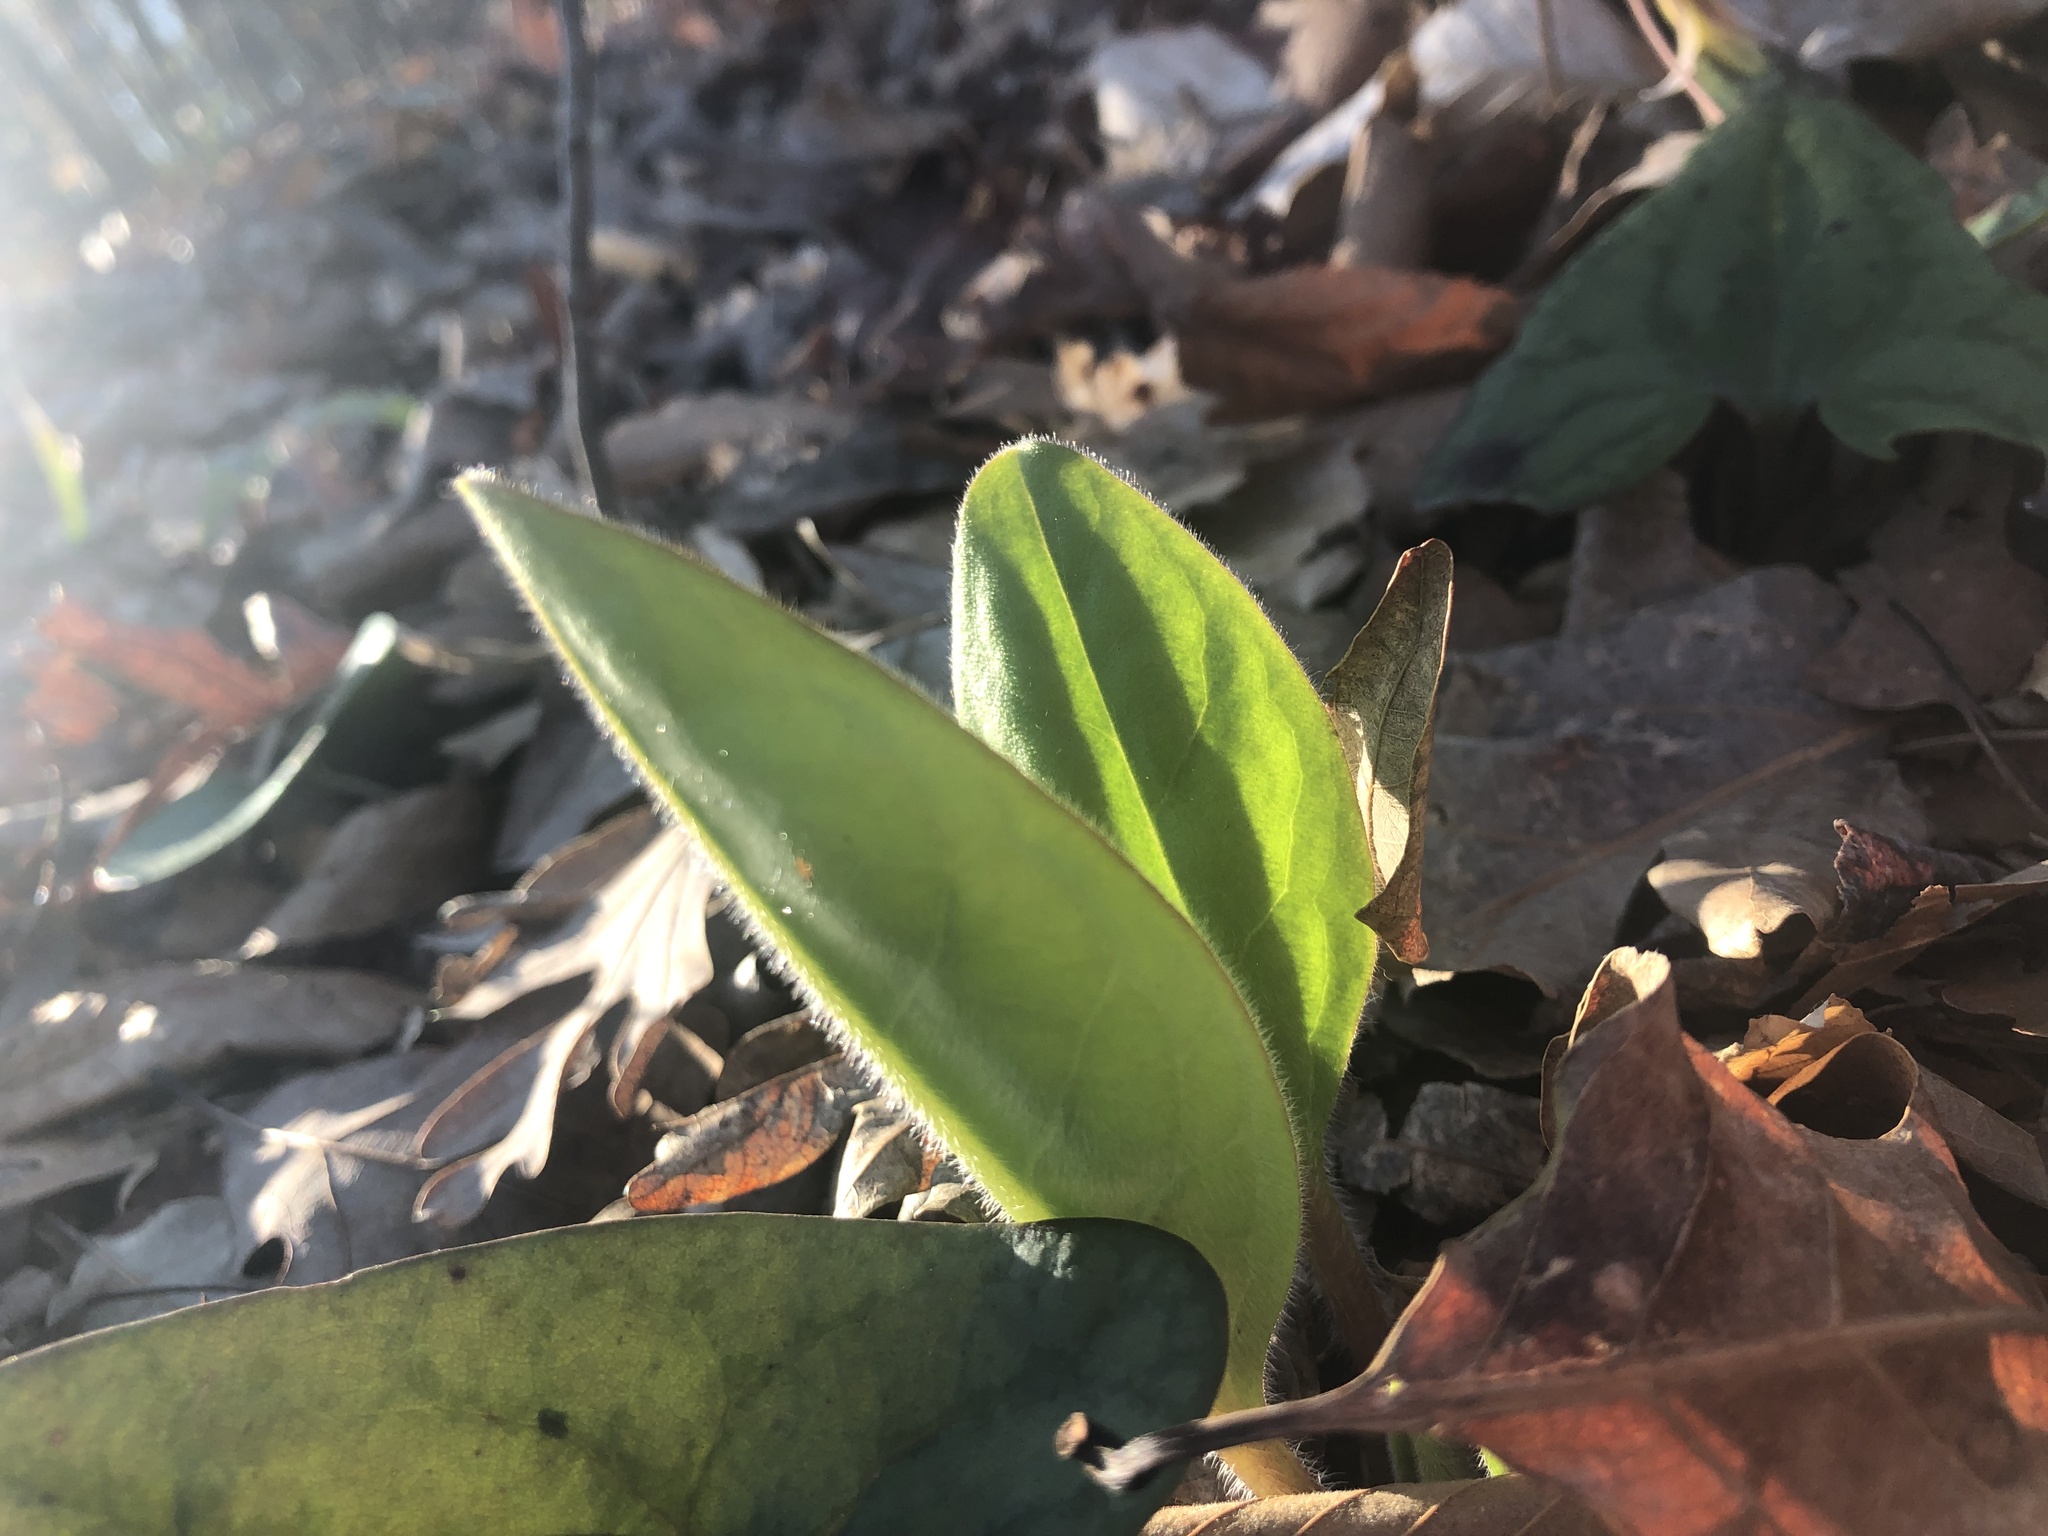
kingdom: Plantae
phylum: Tracheophyta
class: Magnoliopsida
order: Boraginales
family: Boraginaceae
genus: Andersonglossum
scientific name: Andersonglossum virginianum
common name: Wild comfrey
